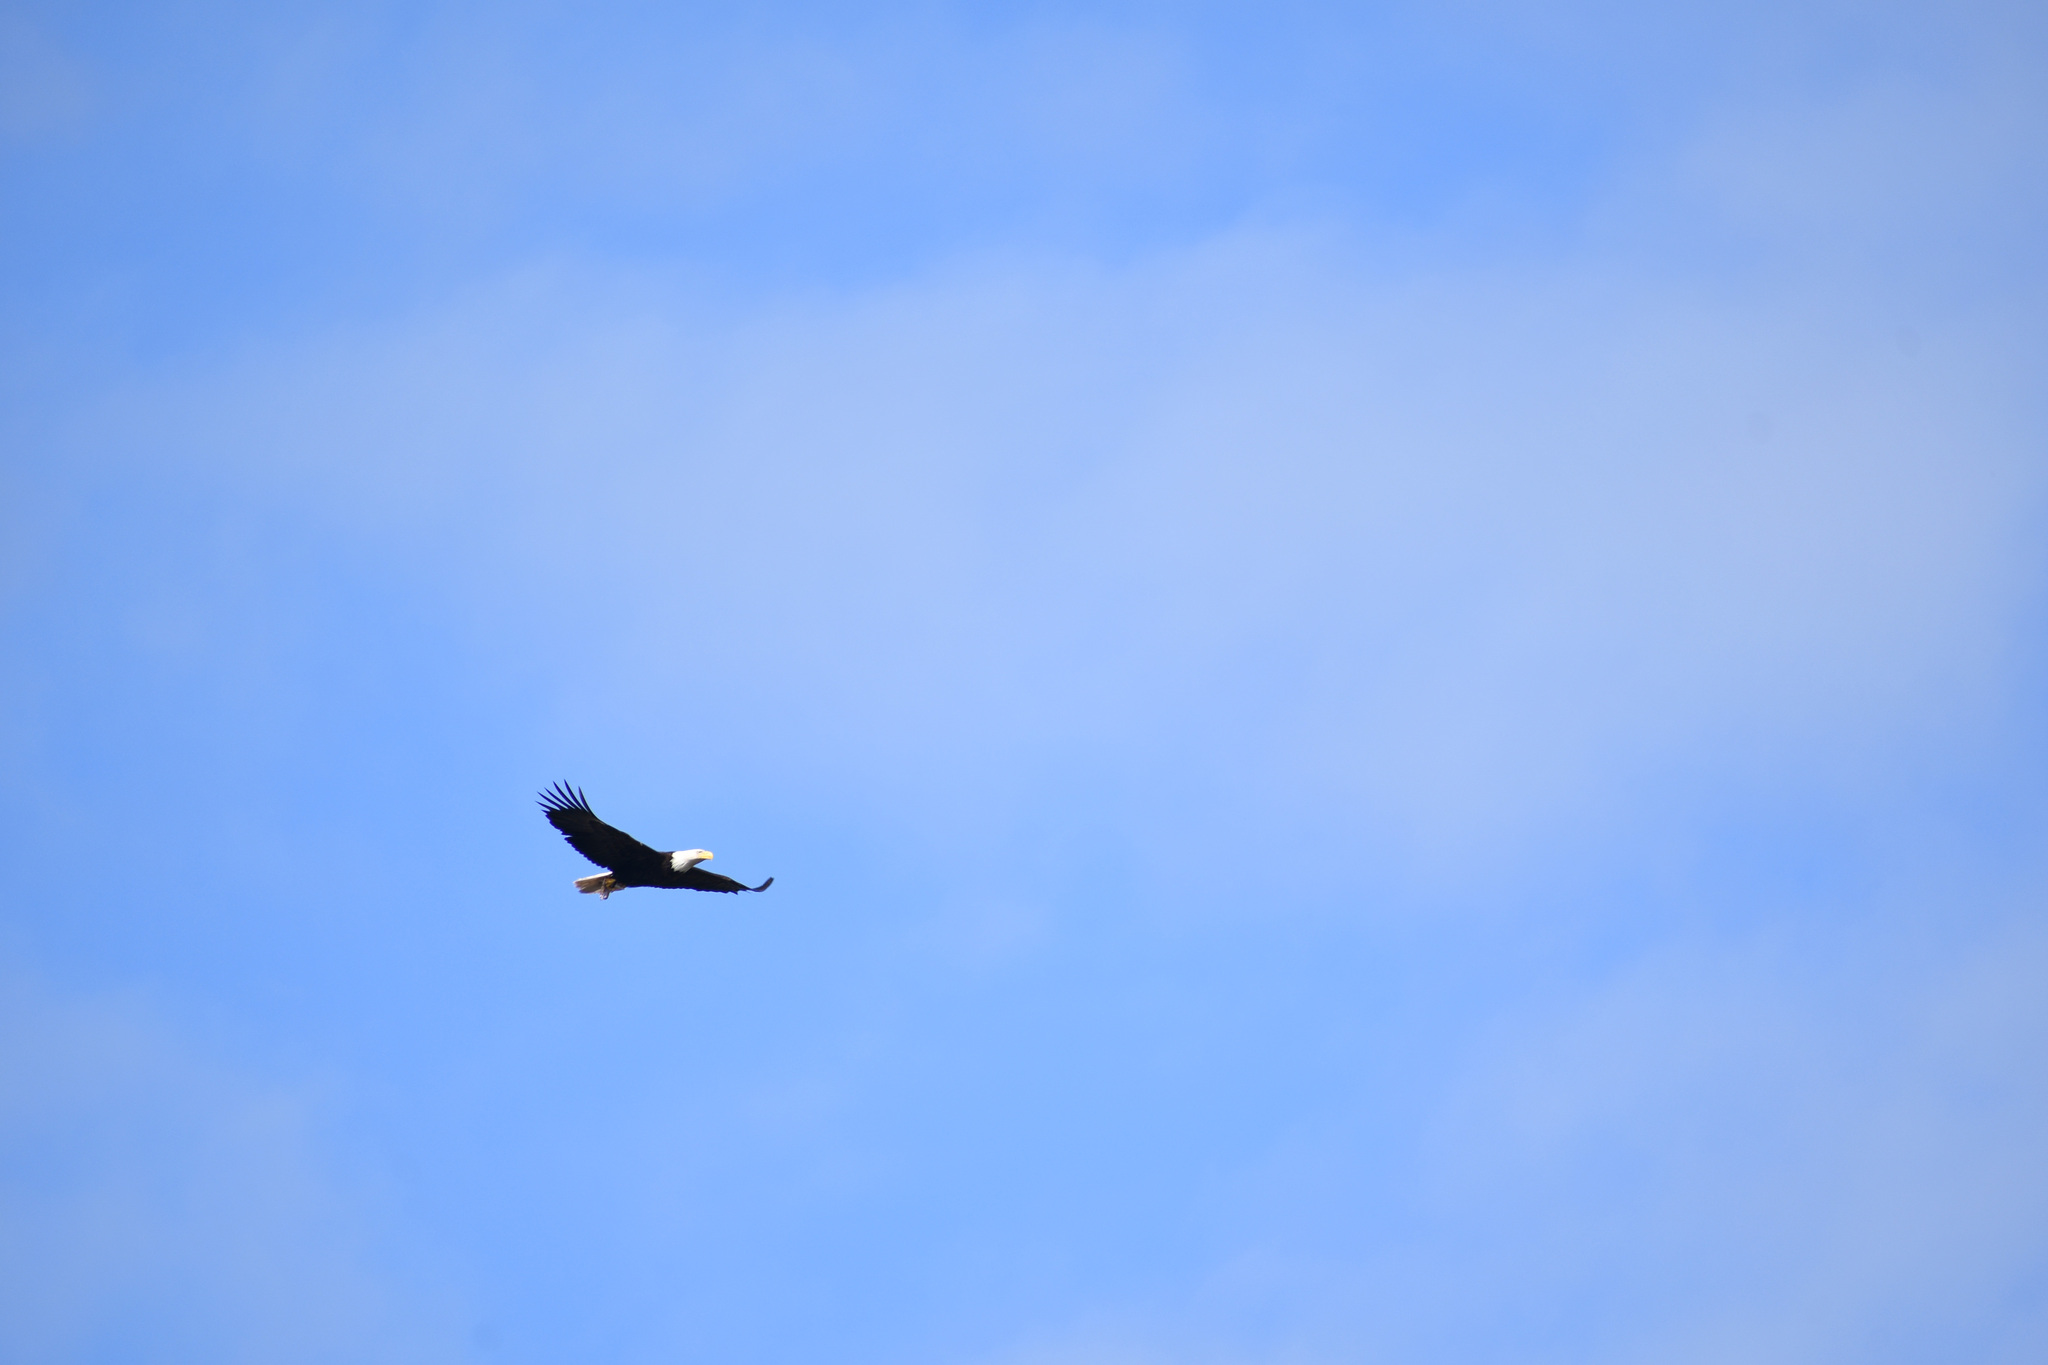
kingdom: Animalia
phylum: Chordata
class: Aves
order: Accipitriformes
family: Accipitridae
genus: Haliaeetus
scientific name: Haliaeetus leucocephalus
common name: Bald eagle
